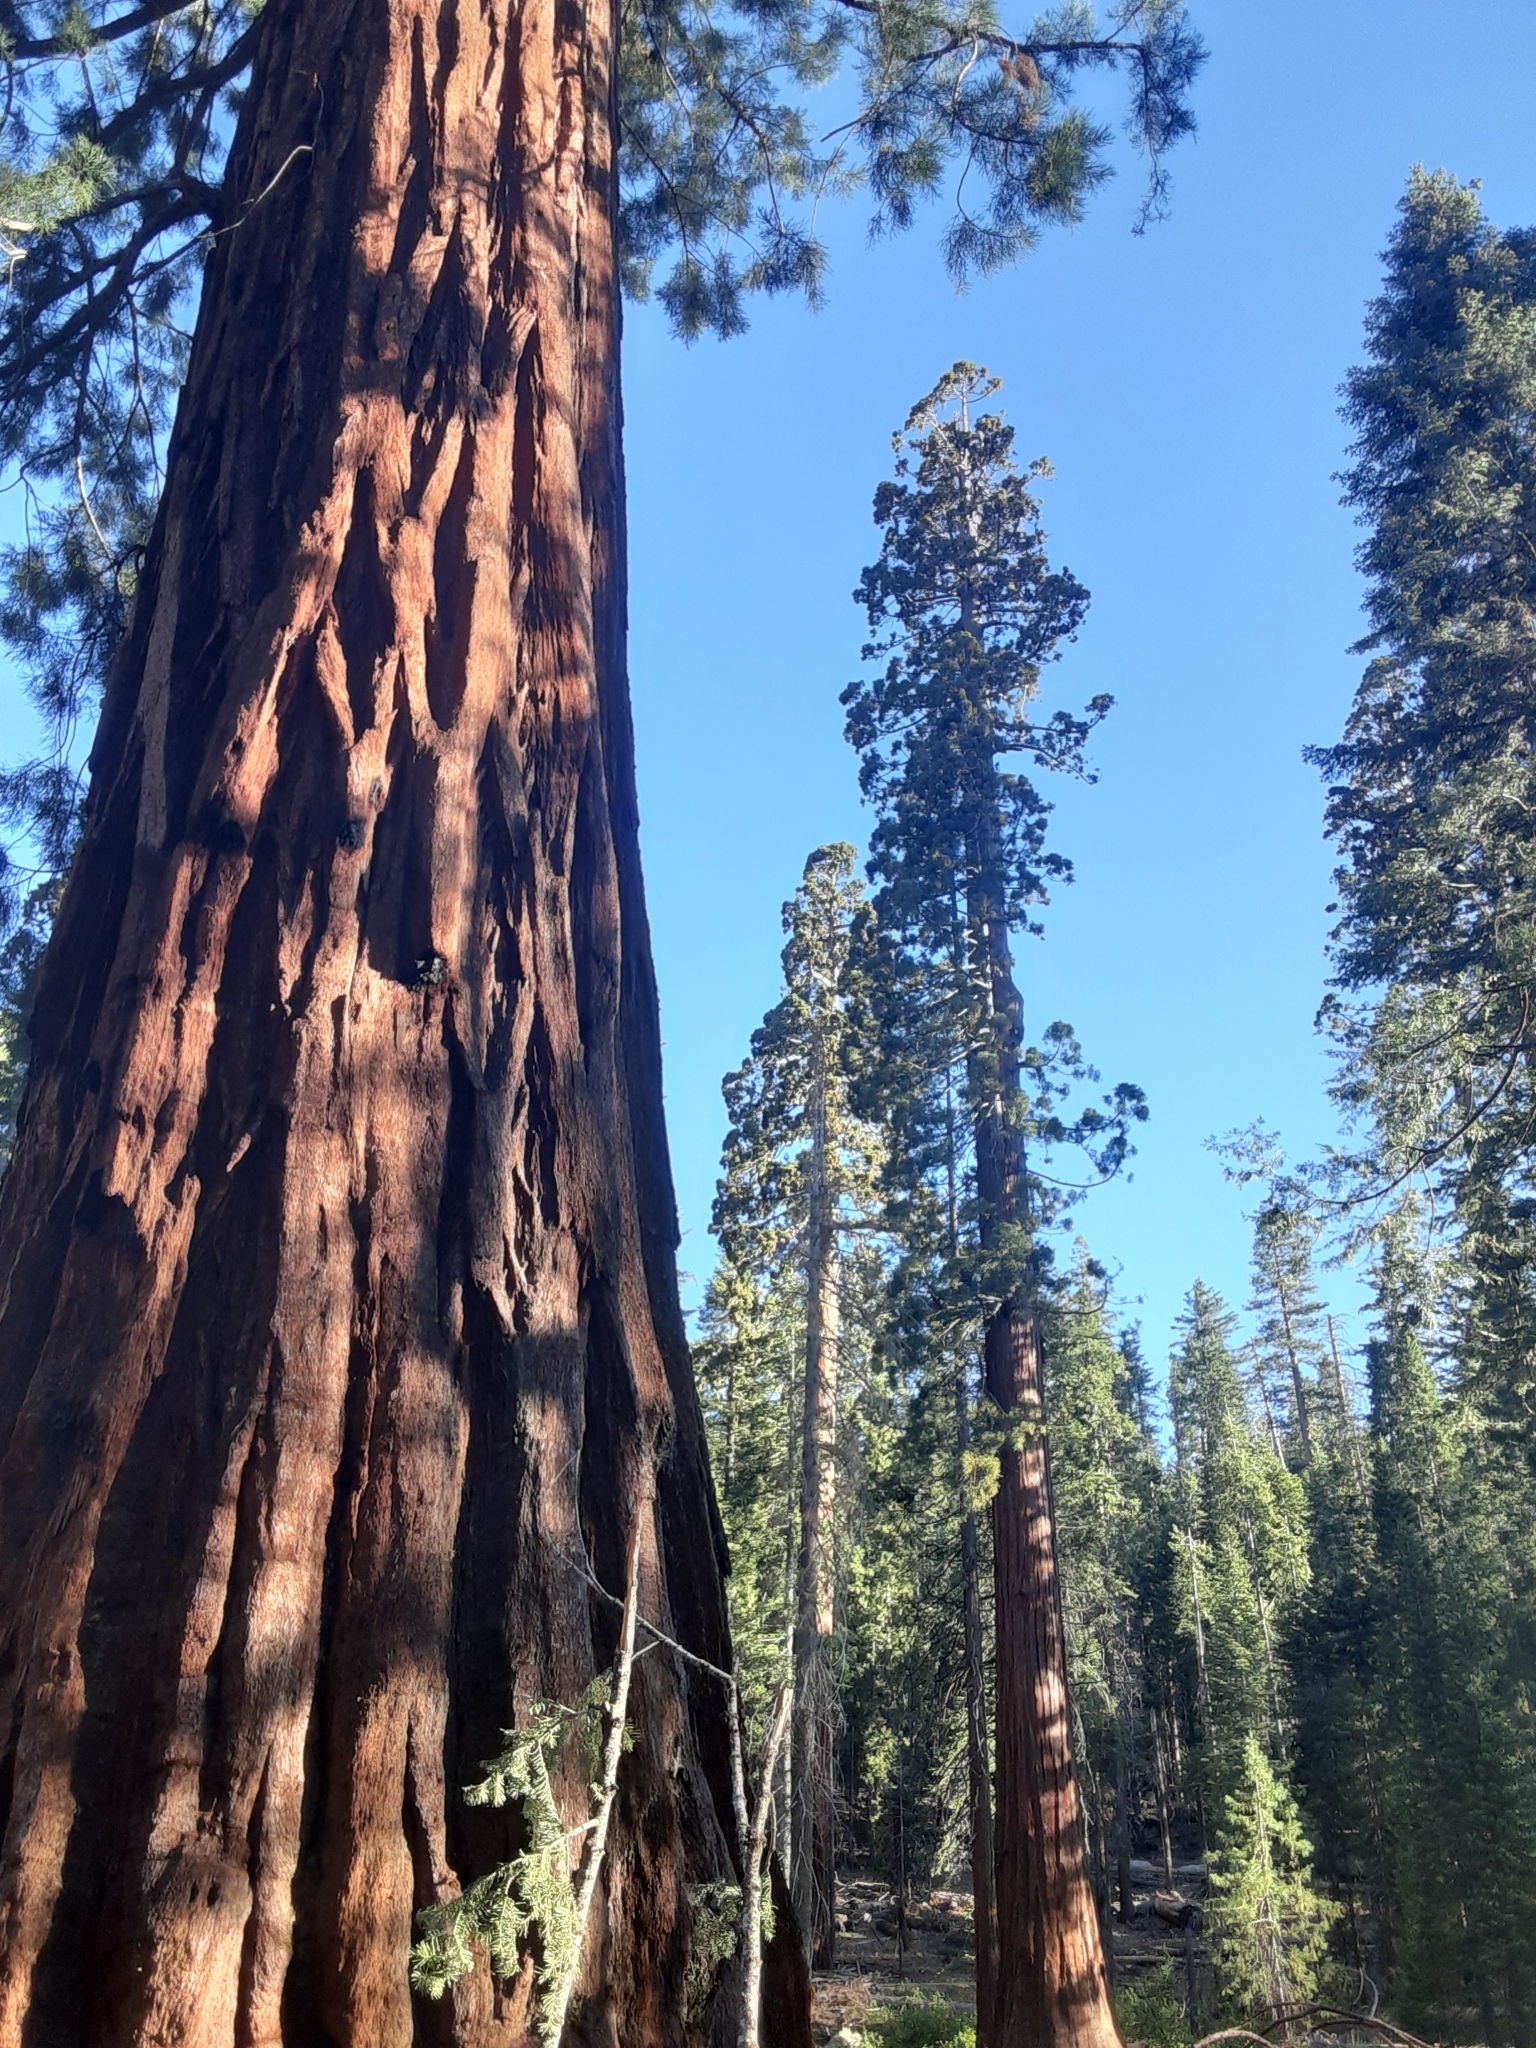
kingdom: Plantae
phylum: Tracheophyta
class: Pinopsida
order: Pinales
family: Cupressaceae
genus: Sequoiadendron
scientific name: Sequoiadendron giganteum
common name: Wellingtonia
